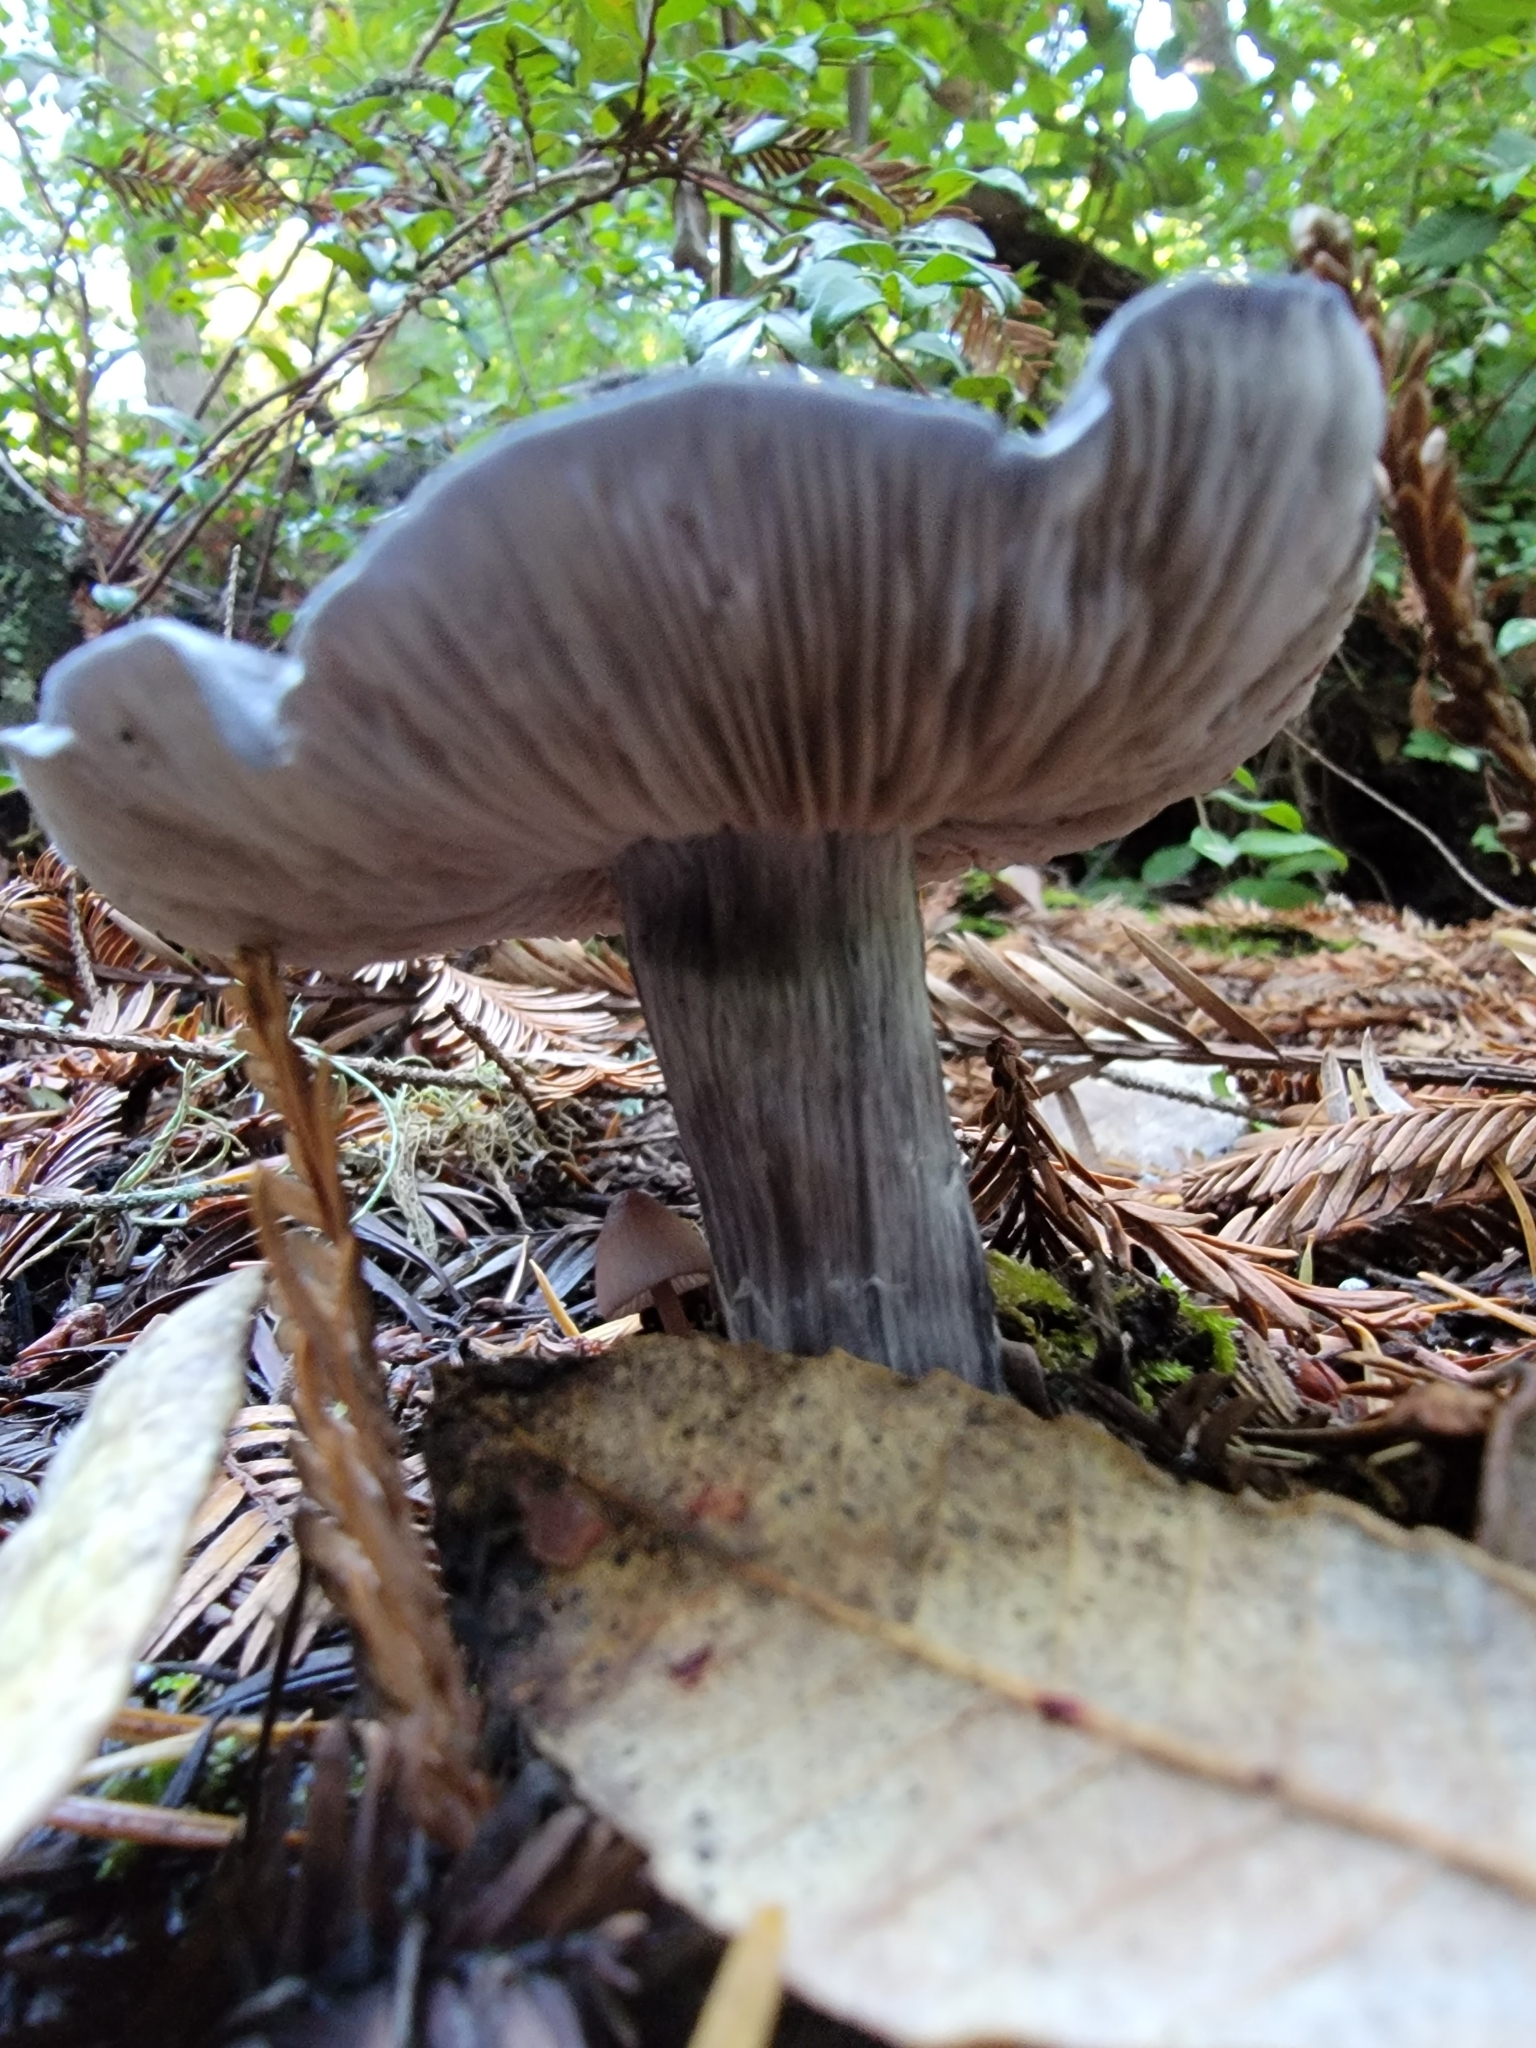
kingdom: Fungi
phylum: Basidiomycota
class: Agaricomycetes
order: Agaricales
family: Entolomataceae
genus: Entoloma
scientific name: Entoloma medianox
